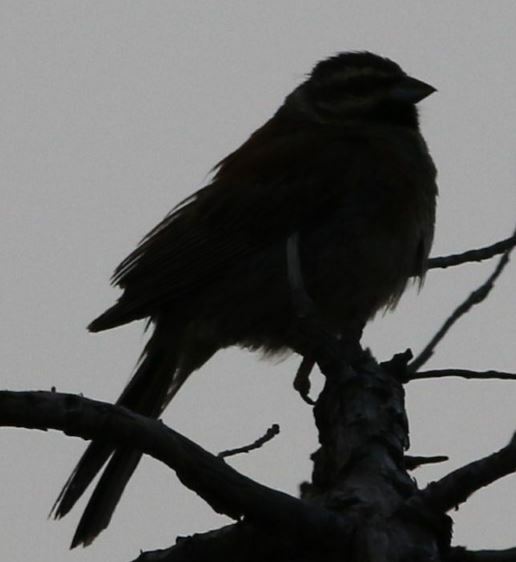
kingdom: Animalia
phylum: Chordata
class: Aves
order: Passeriformes
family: Emberizidae
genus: Emberiza
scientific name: Emberiza cirlus
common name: Cirl bunting
